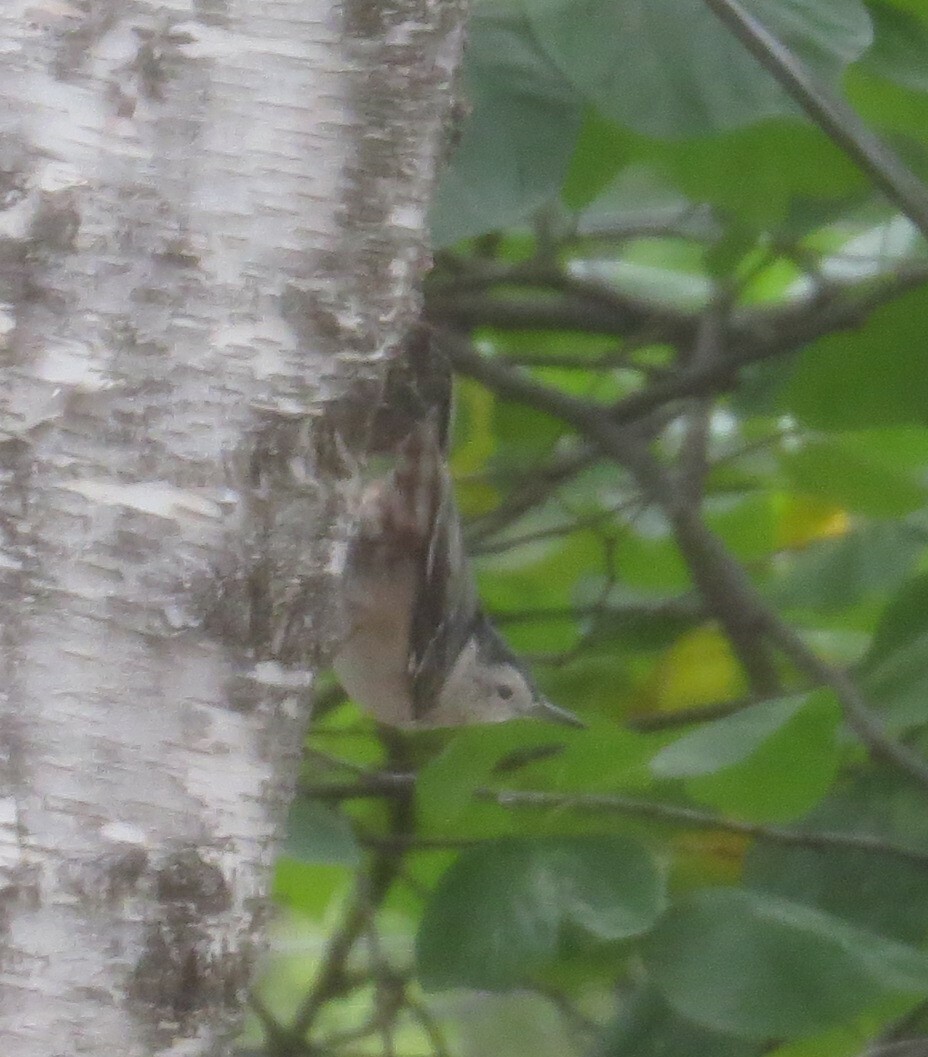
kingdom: Animalia
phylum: Chordata
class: Aves
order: Passeriformes
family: Sittidae
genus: Sitta
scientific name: Sitta carolinensis
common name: White-breasted nuthatch
